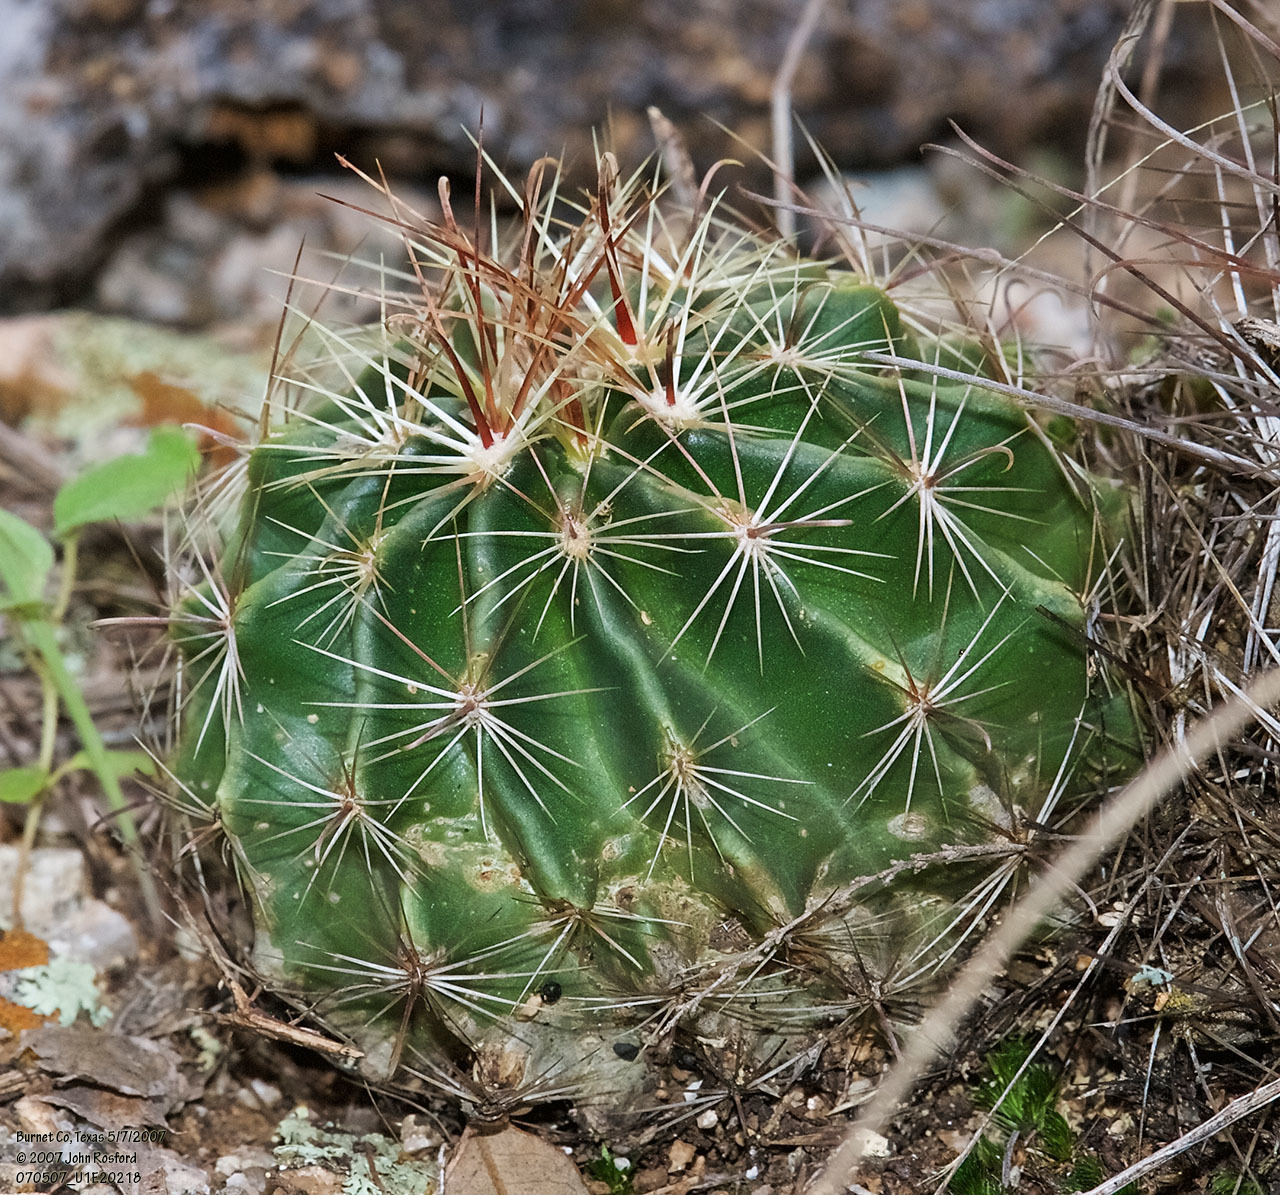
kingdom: Plantae
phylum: Tracheophyta
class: Magnoliopsida
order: Caryophyllales
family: Cactaceae
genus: Thelocactus
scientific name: Thelocactus setispinus
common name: Miniature barrel cactus
